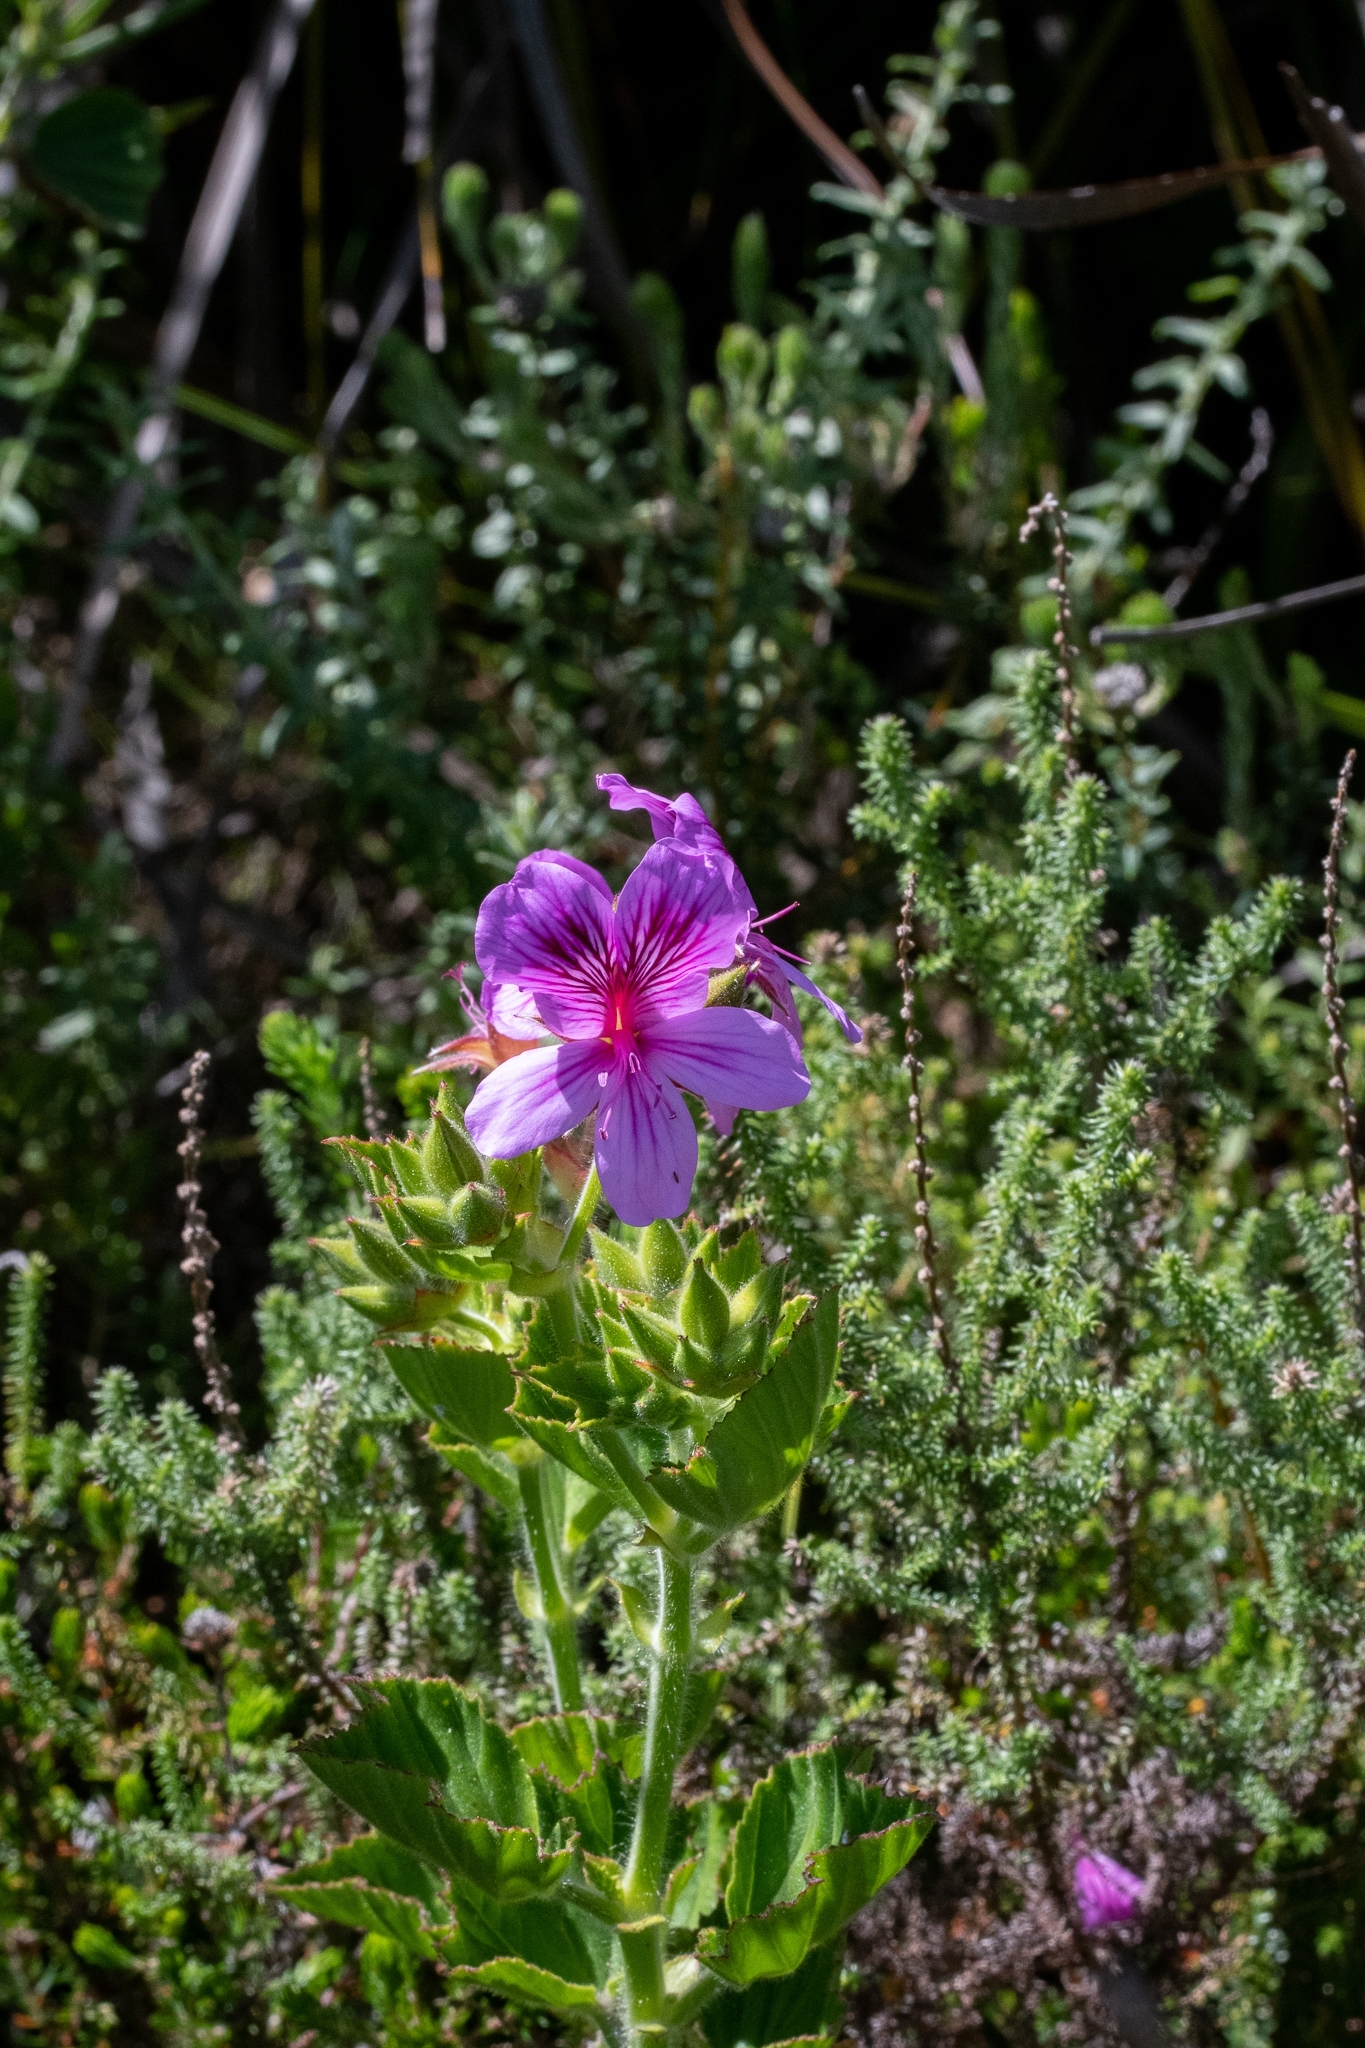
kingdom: Plantae
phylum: Tracheophyta
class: Magnoliopsida
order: Geraniales
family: Geraniaceae
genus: Pelargonium
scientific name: Pelargonium cucullatum
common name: Tree pelargonium
